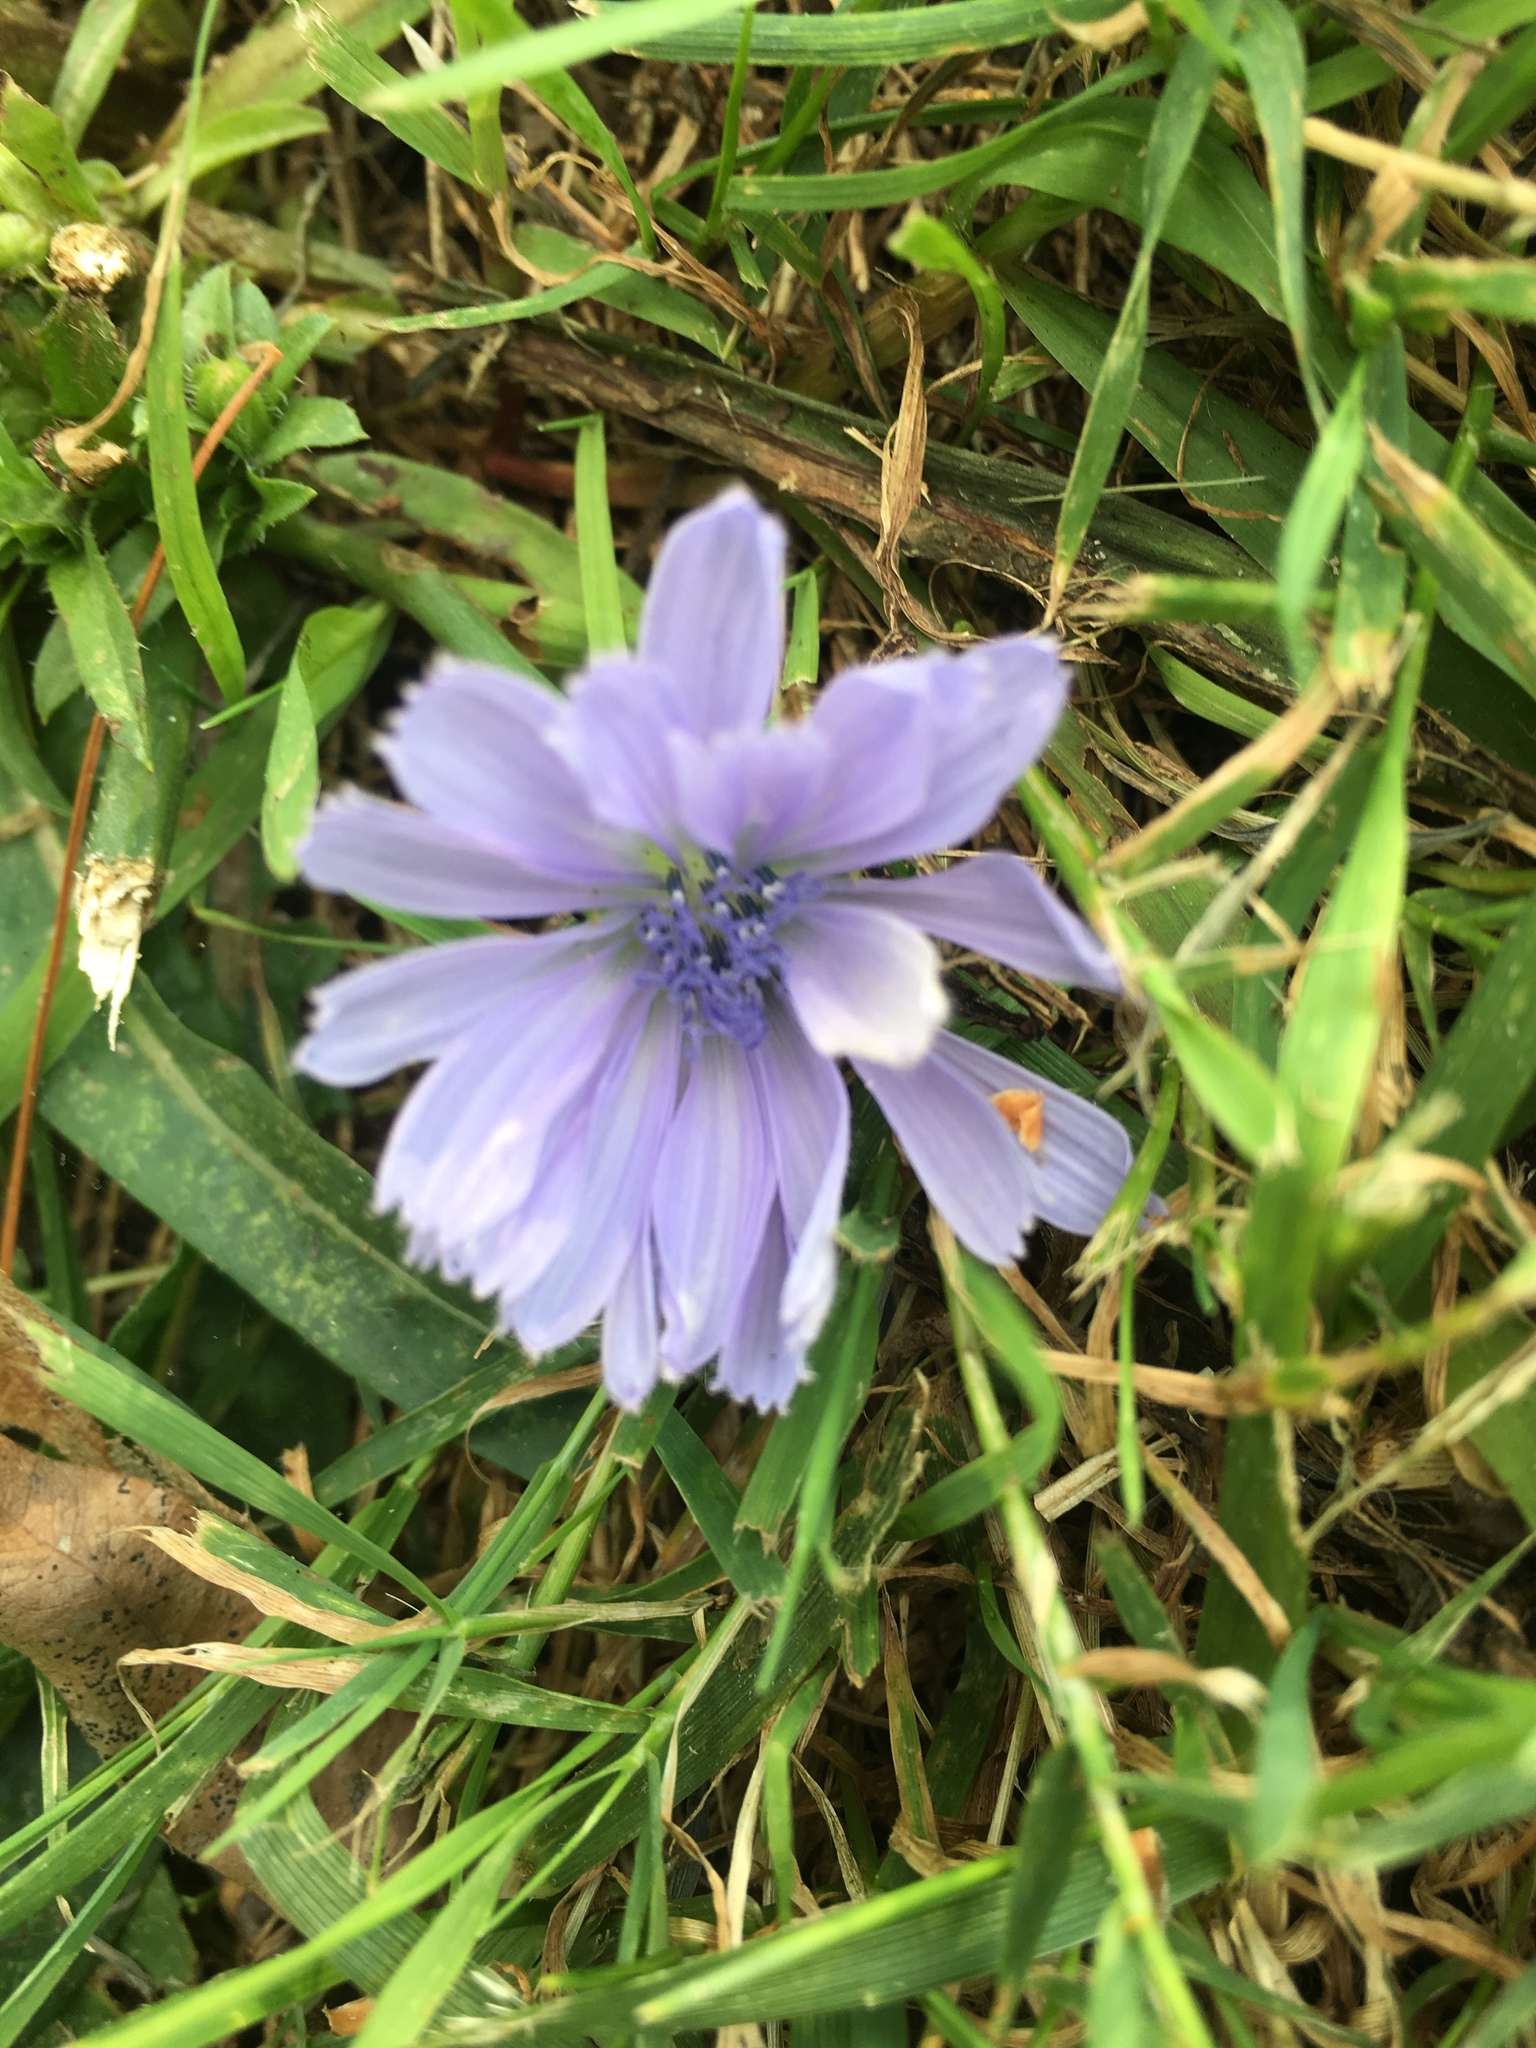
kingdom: Plantae
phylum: Tracheophyta
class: Magnoliopsida
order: Asterales
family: Asteraceae
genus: Cichorium
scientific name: Cichorium intybus
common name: Chicory
